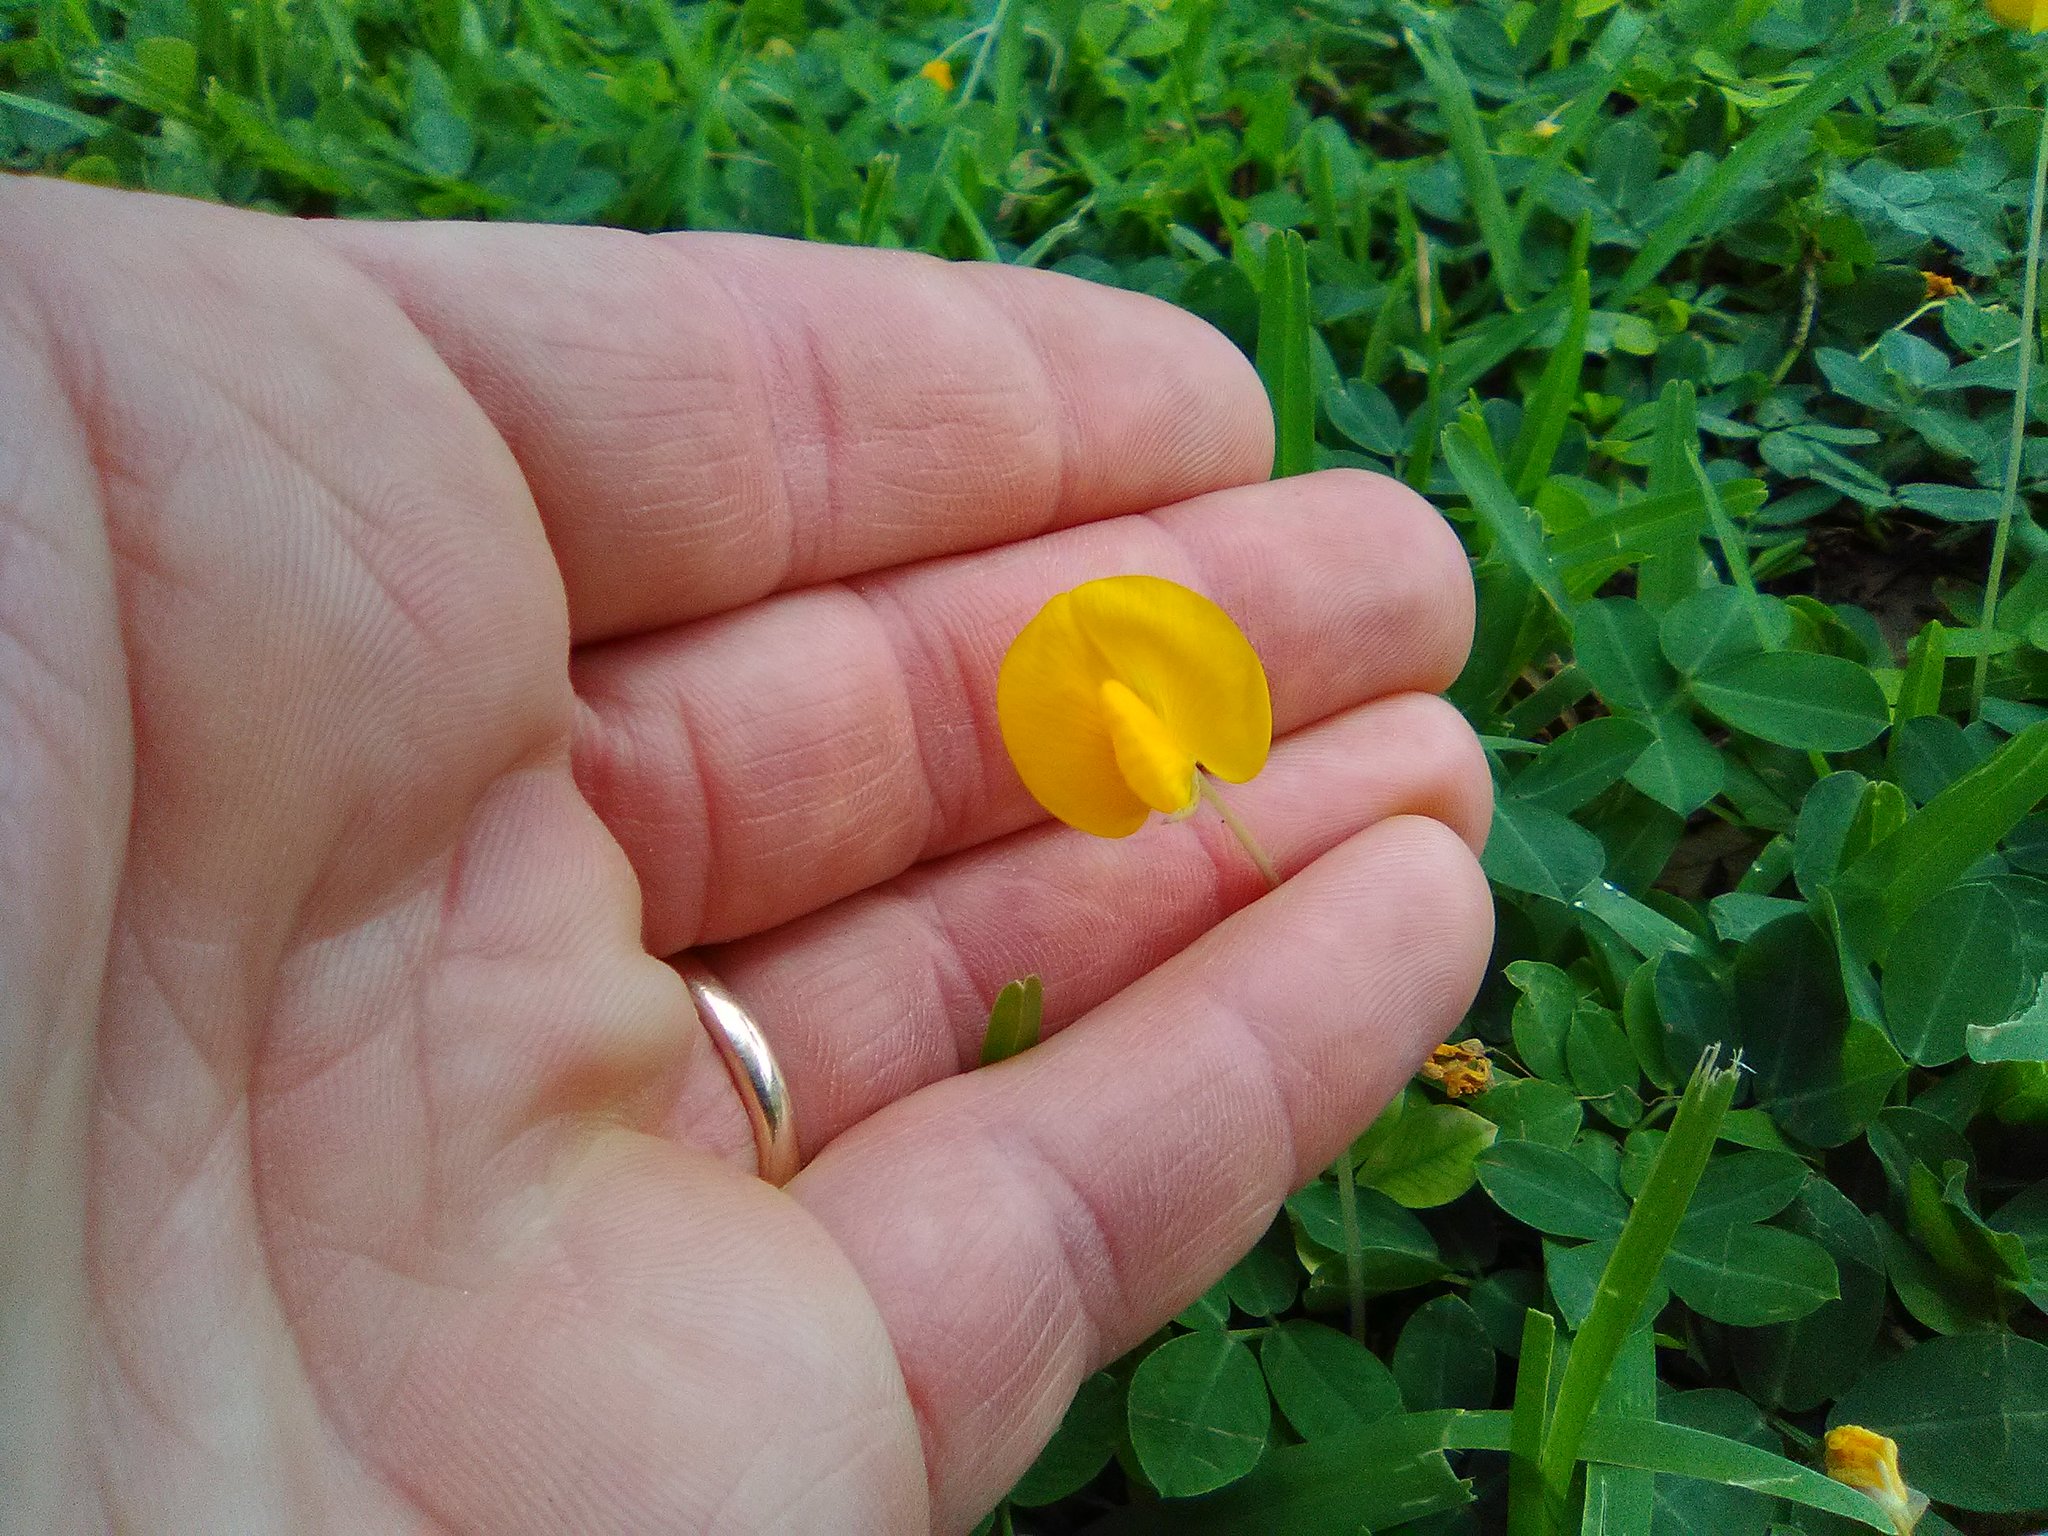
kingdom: Plantae
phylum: Tracheophyta
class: Magnoliopsida
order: Fabales
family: Fabaceae
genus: Arachis
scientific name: Arachis glabrata
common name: Rhizoma peanut
